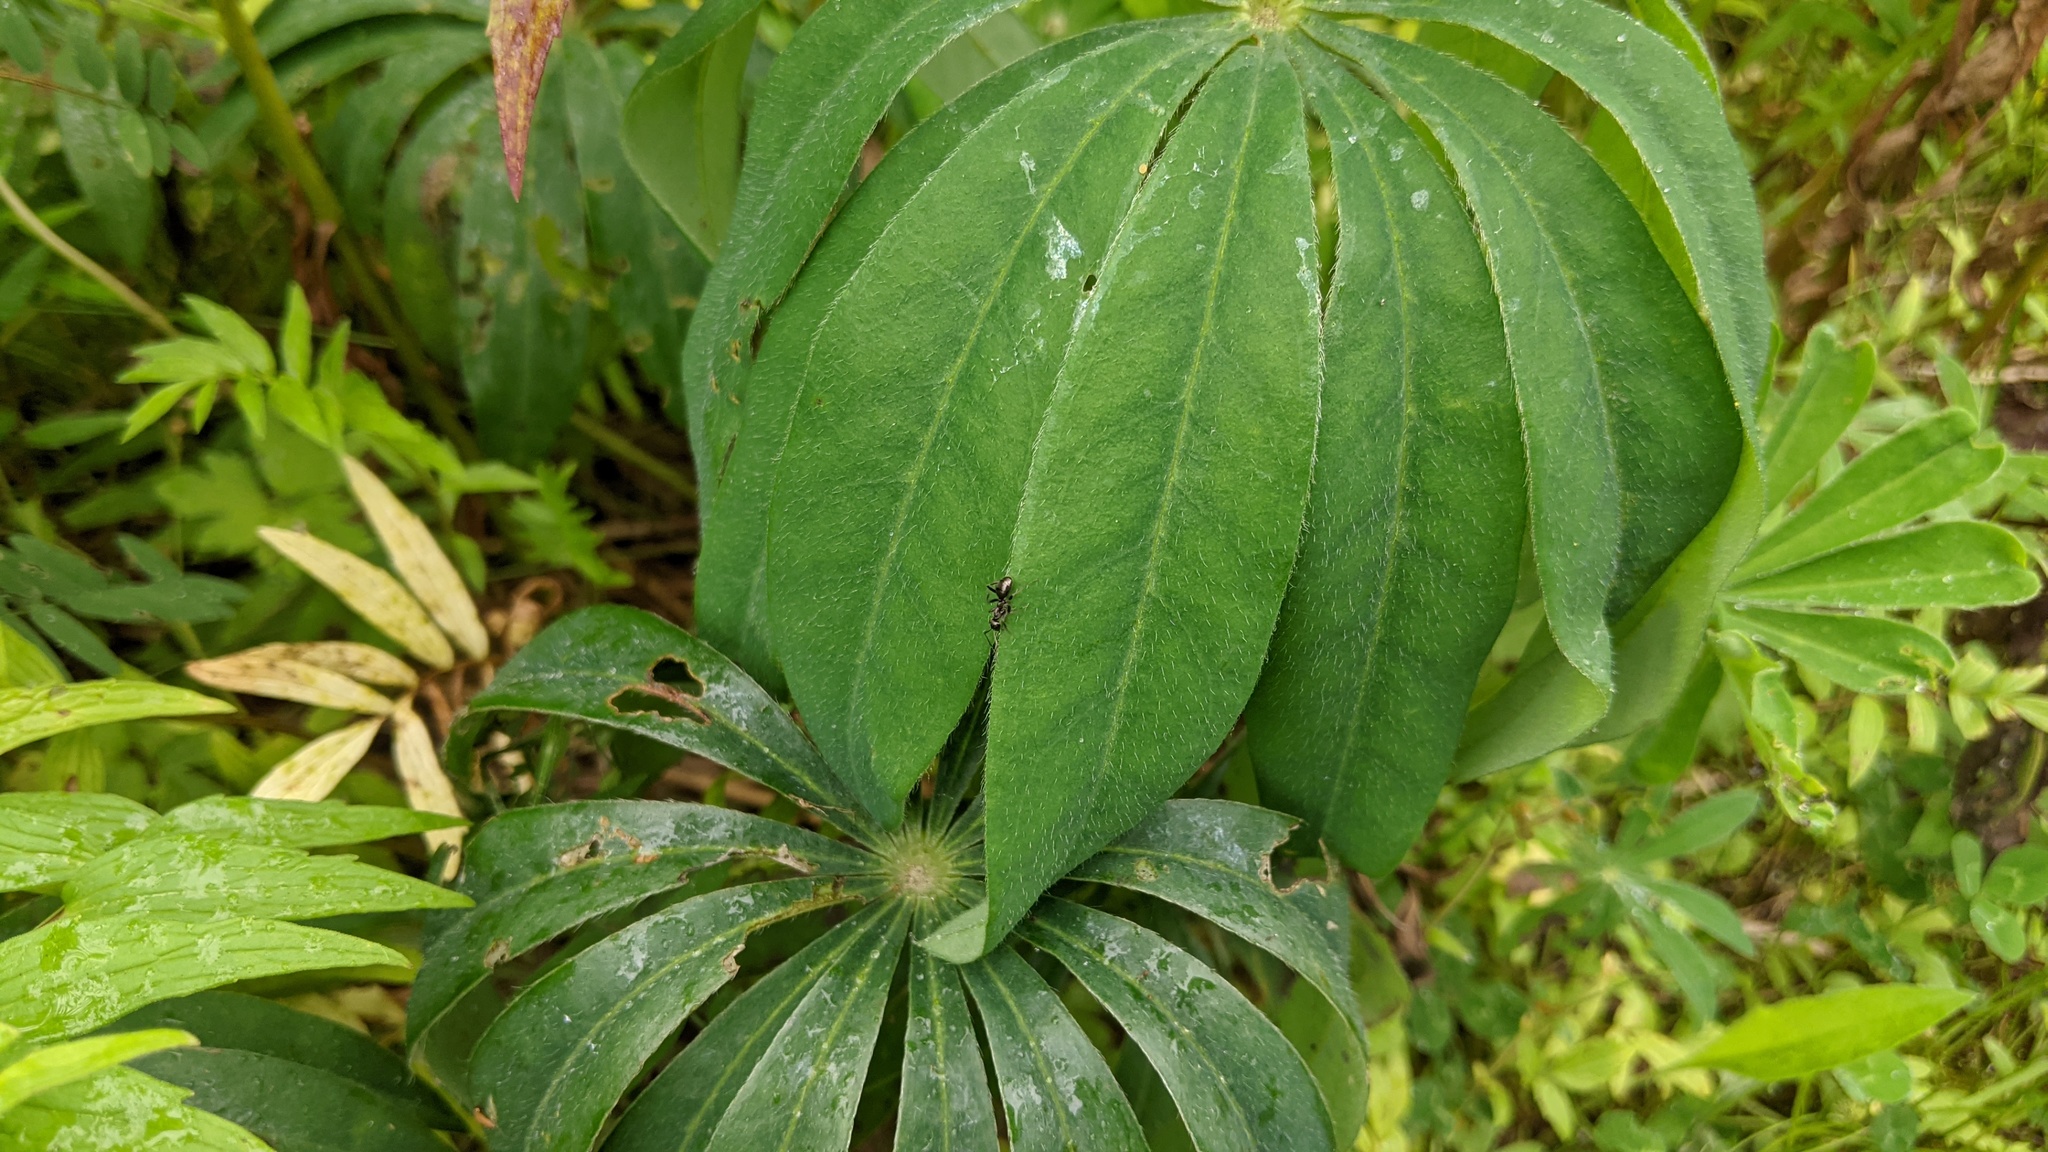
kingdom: Plantae
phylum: Tracheophyta
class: Magnoliopsida
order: Fabales
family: Fabaceae
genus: Lupinus
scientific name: Lupinus polyphyllus
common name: Garden lupin
